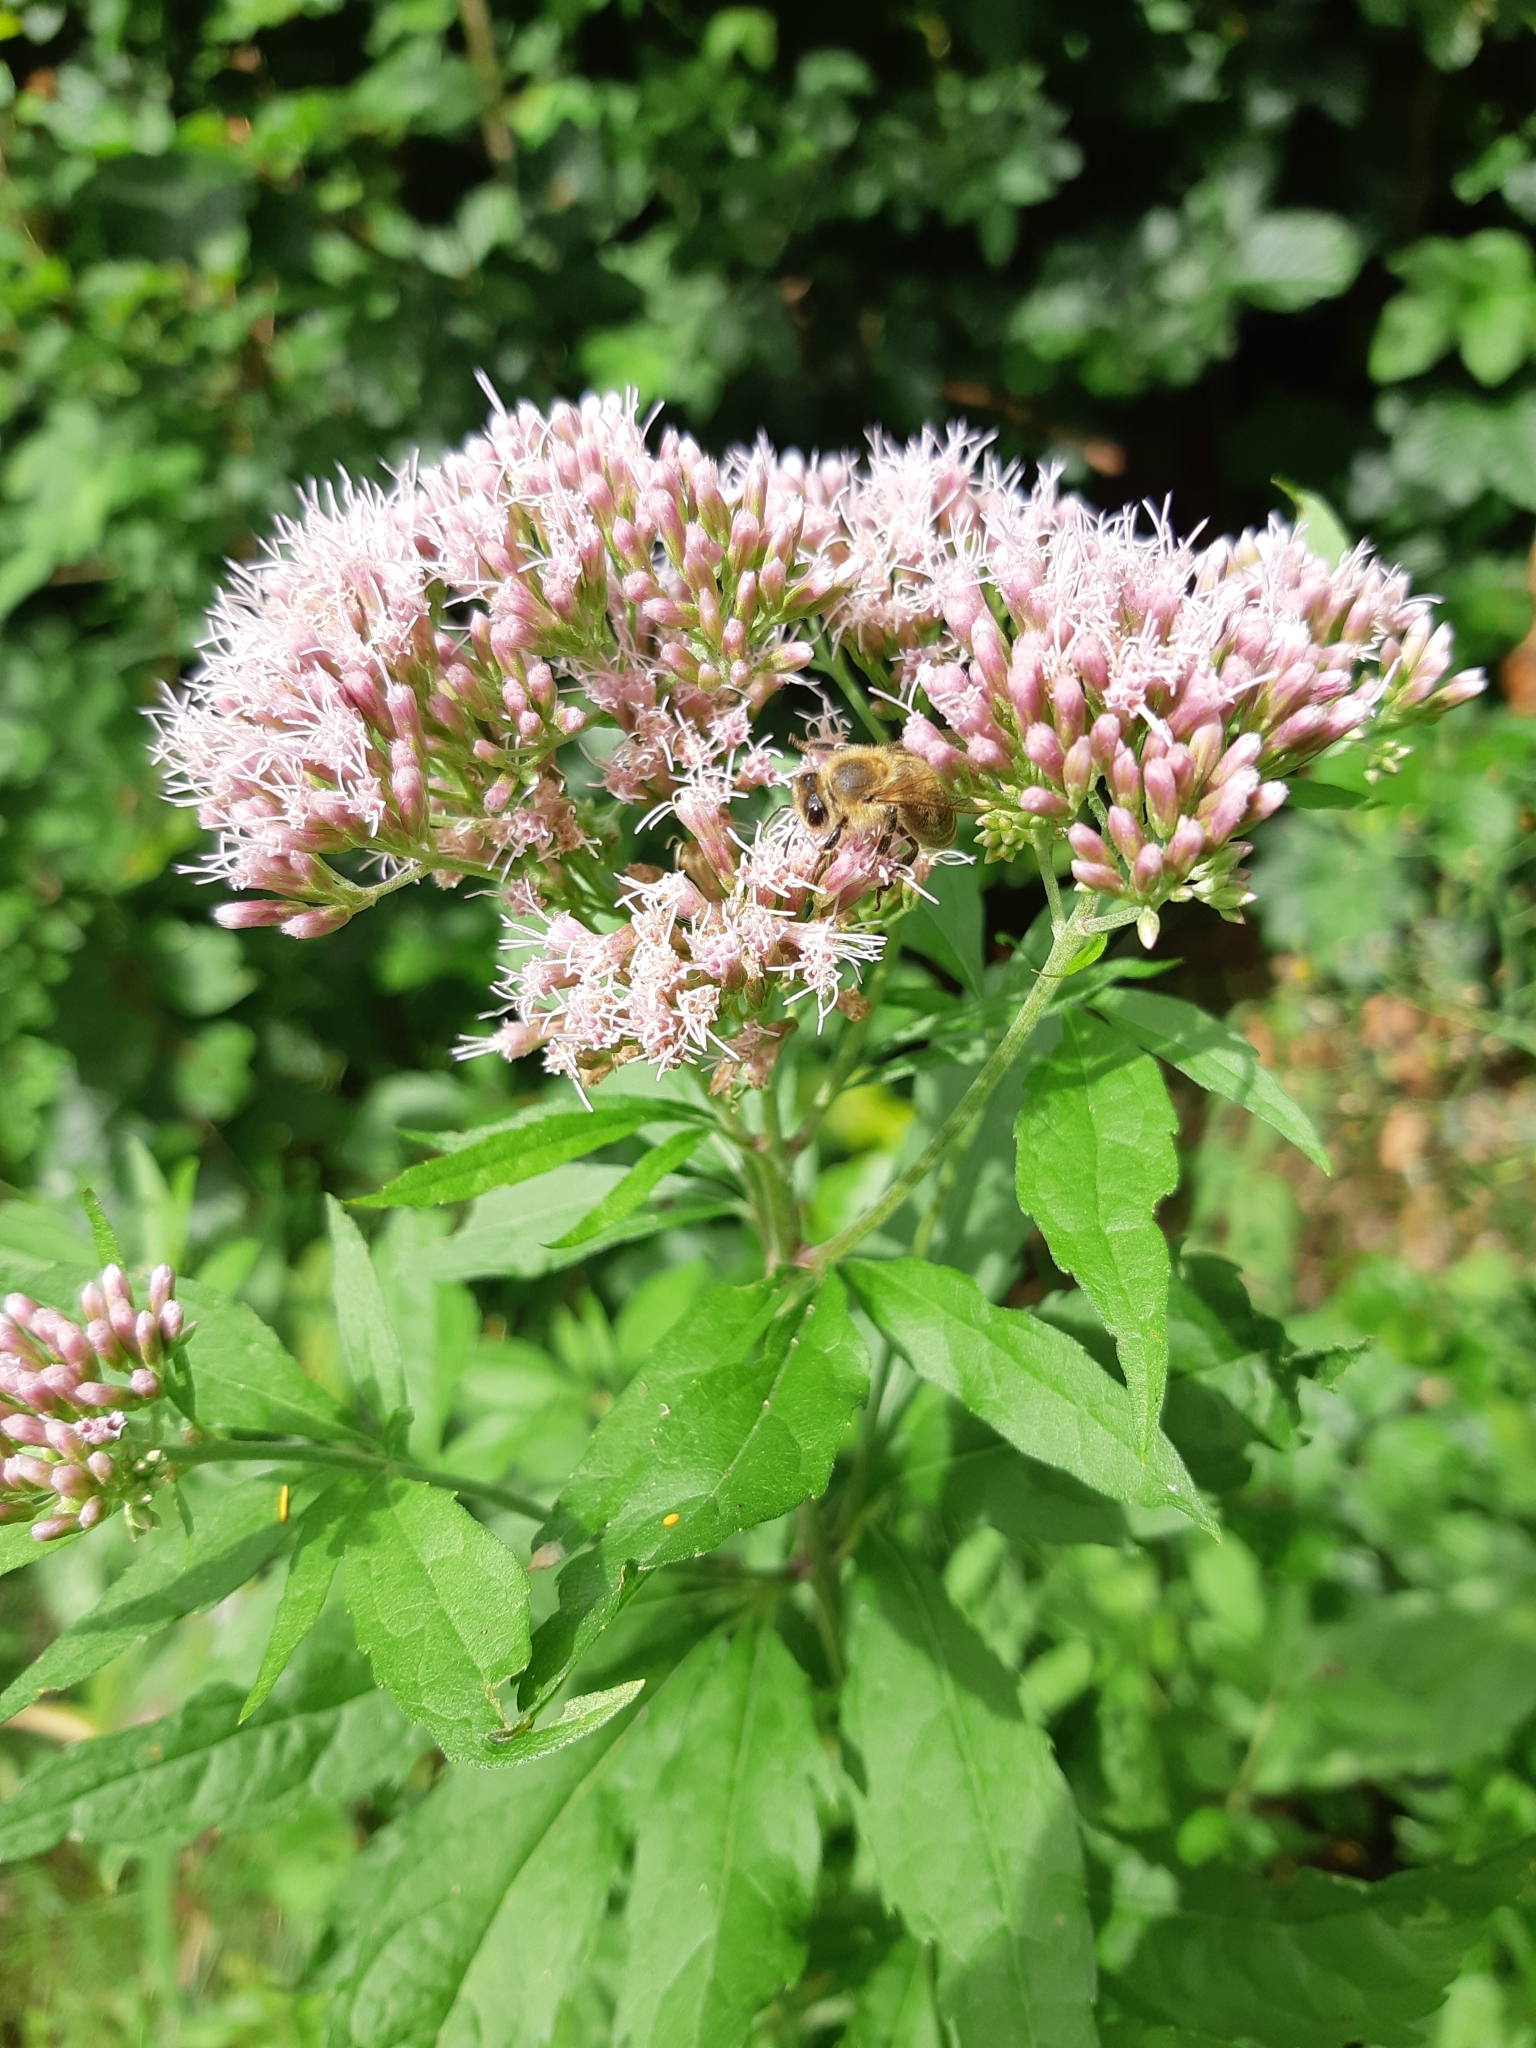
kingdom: Plantae
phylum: Tracheophyta
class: Magnoliopsida
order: Asterales
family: Asteraceae
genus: Eupatorium
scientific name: Eupatorium cannabinum
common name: Hemp-agrimony
